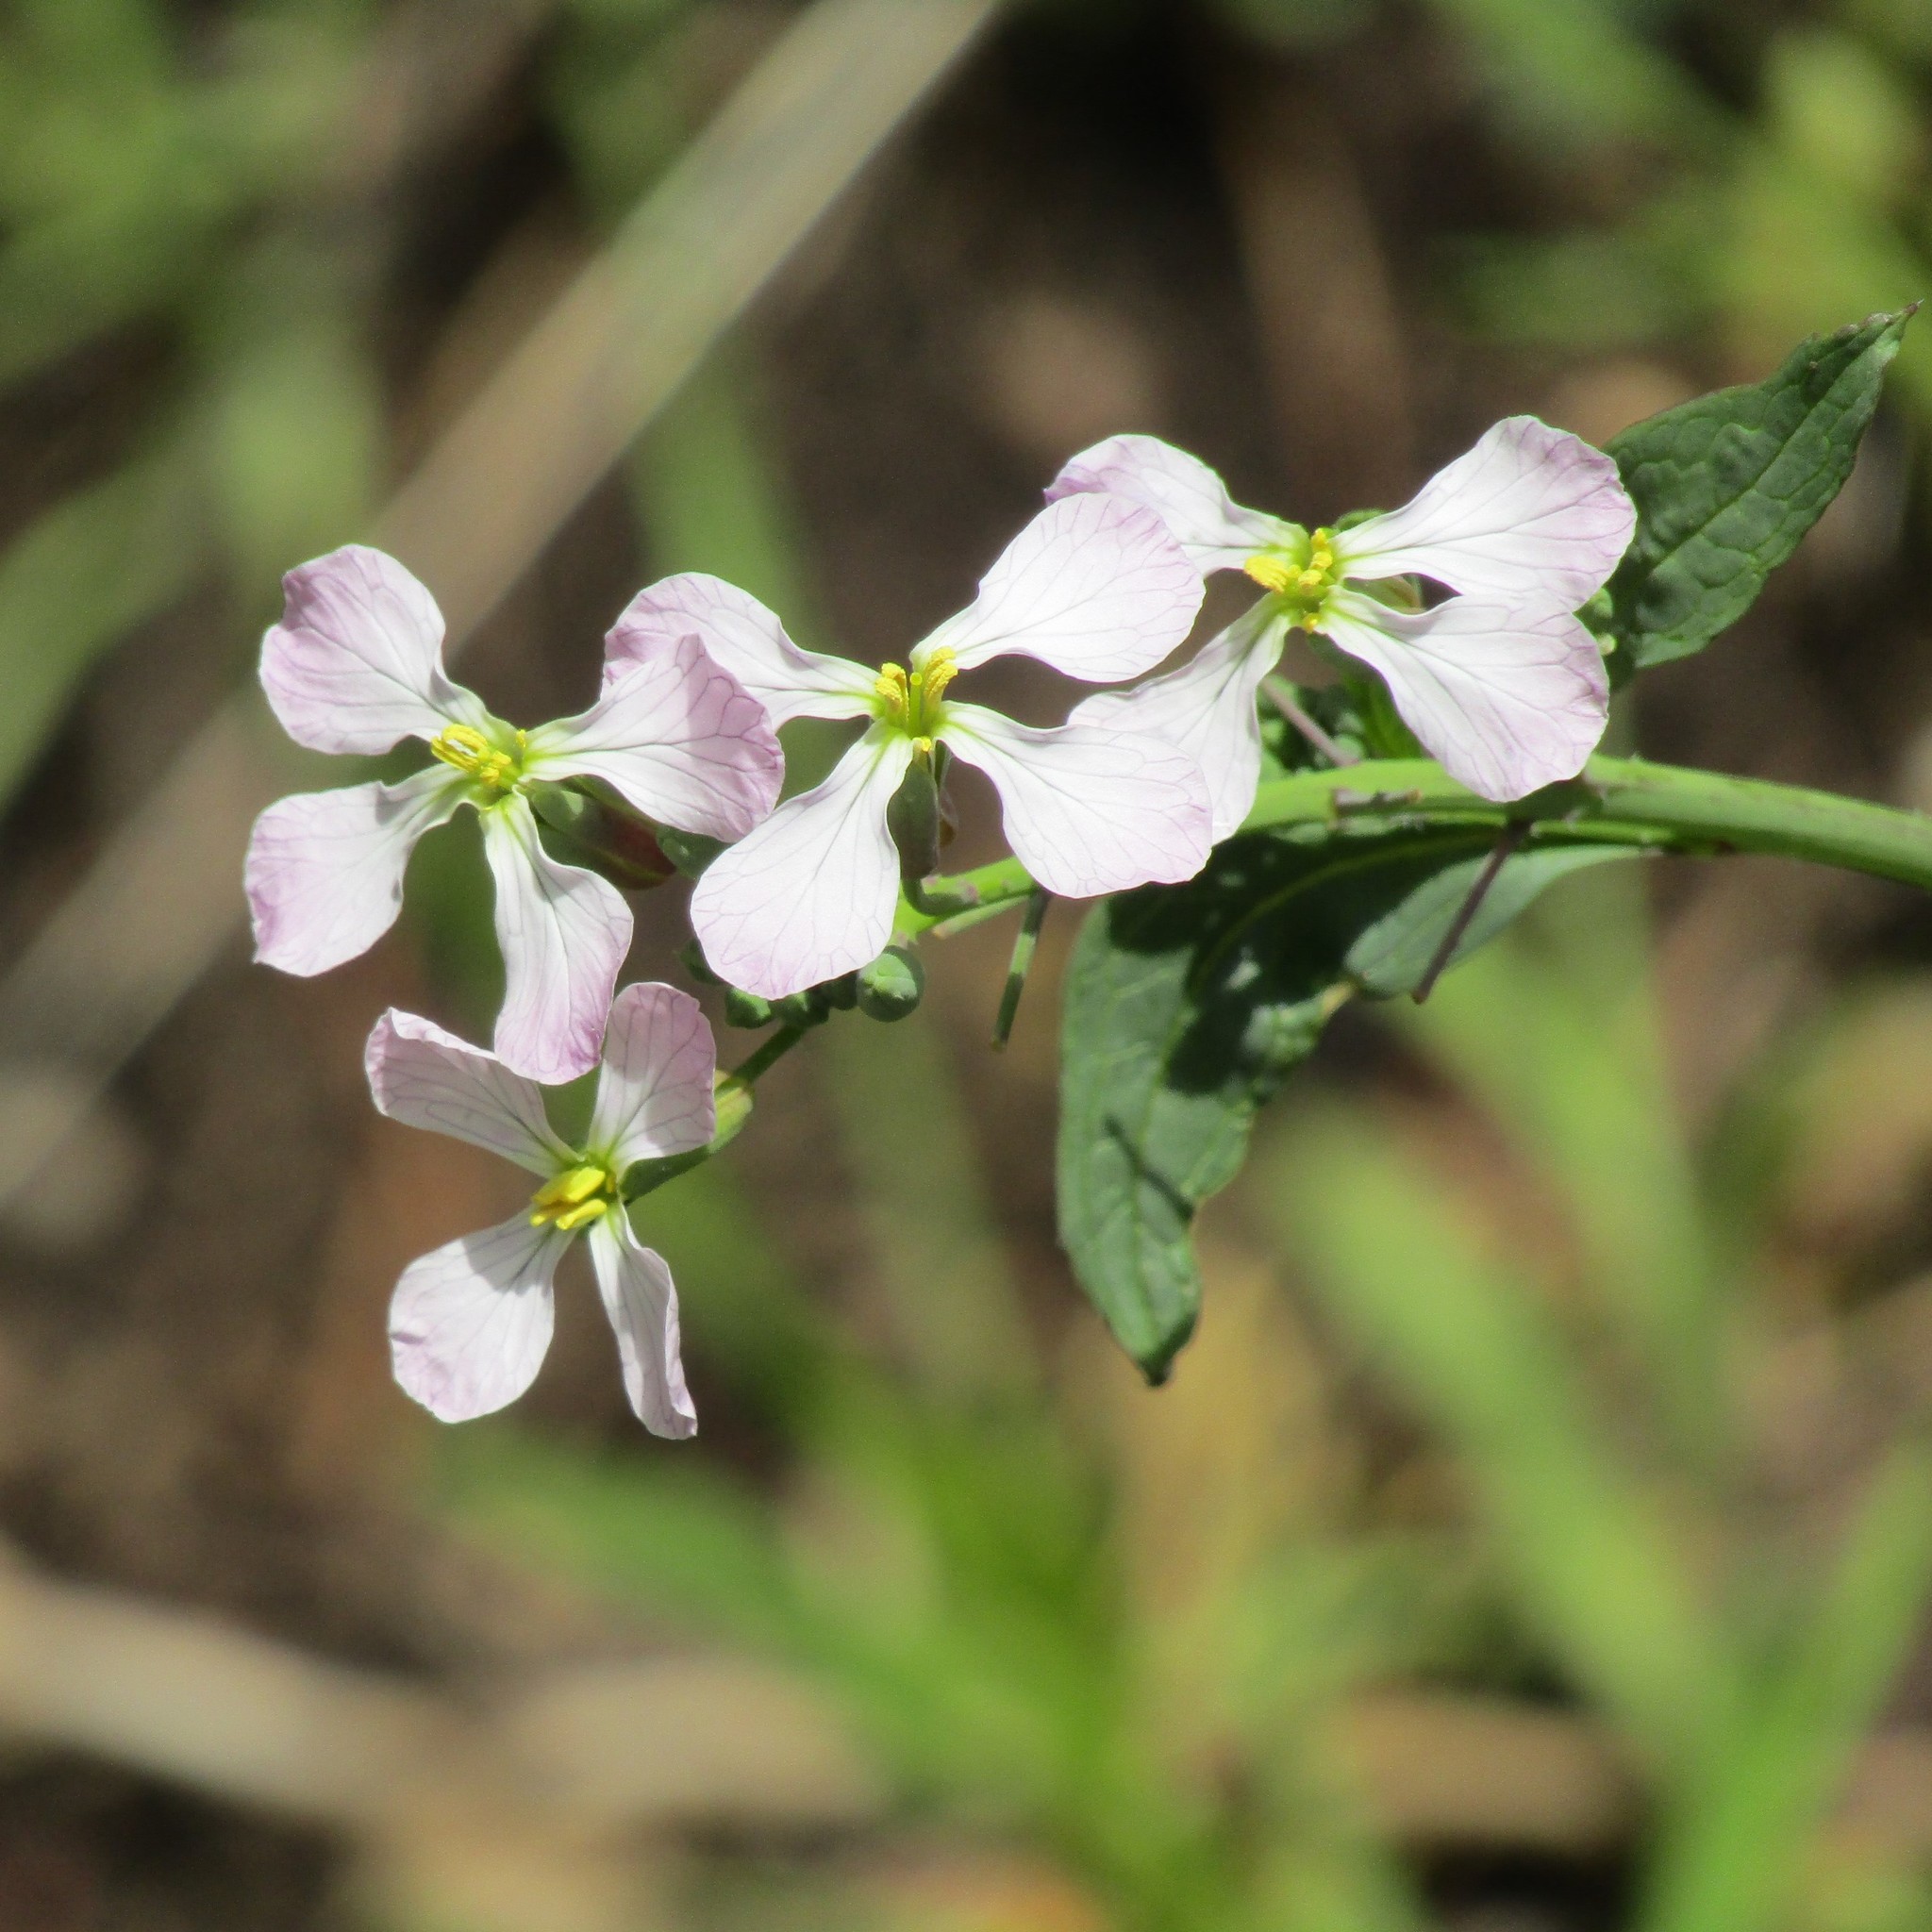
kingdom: Plantae
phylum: Tracheophyta
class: Magnoliopsida
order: Brassicales
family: Brassicaceae
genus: Raphanus
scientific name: Raphanus raphanistrum
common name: Wild radish
